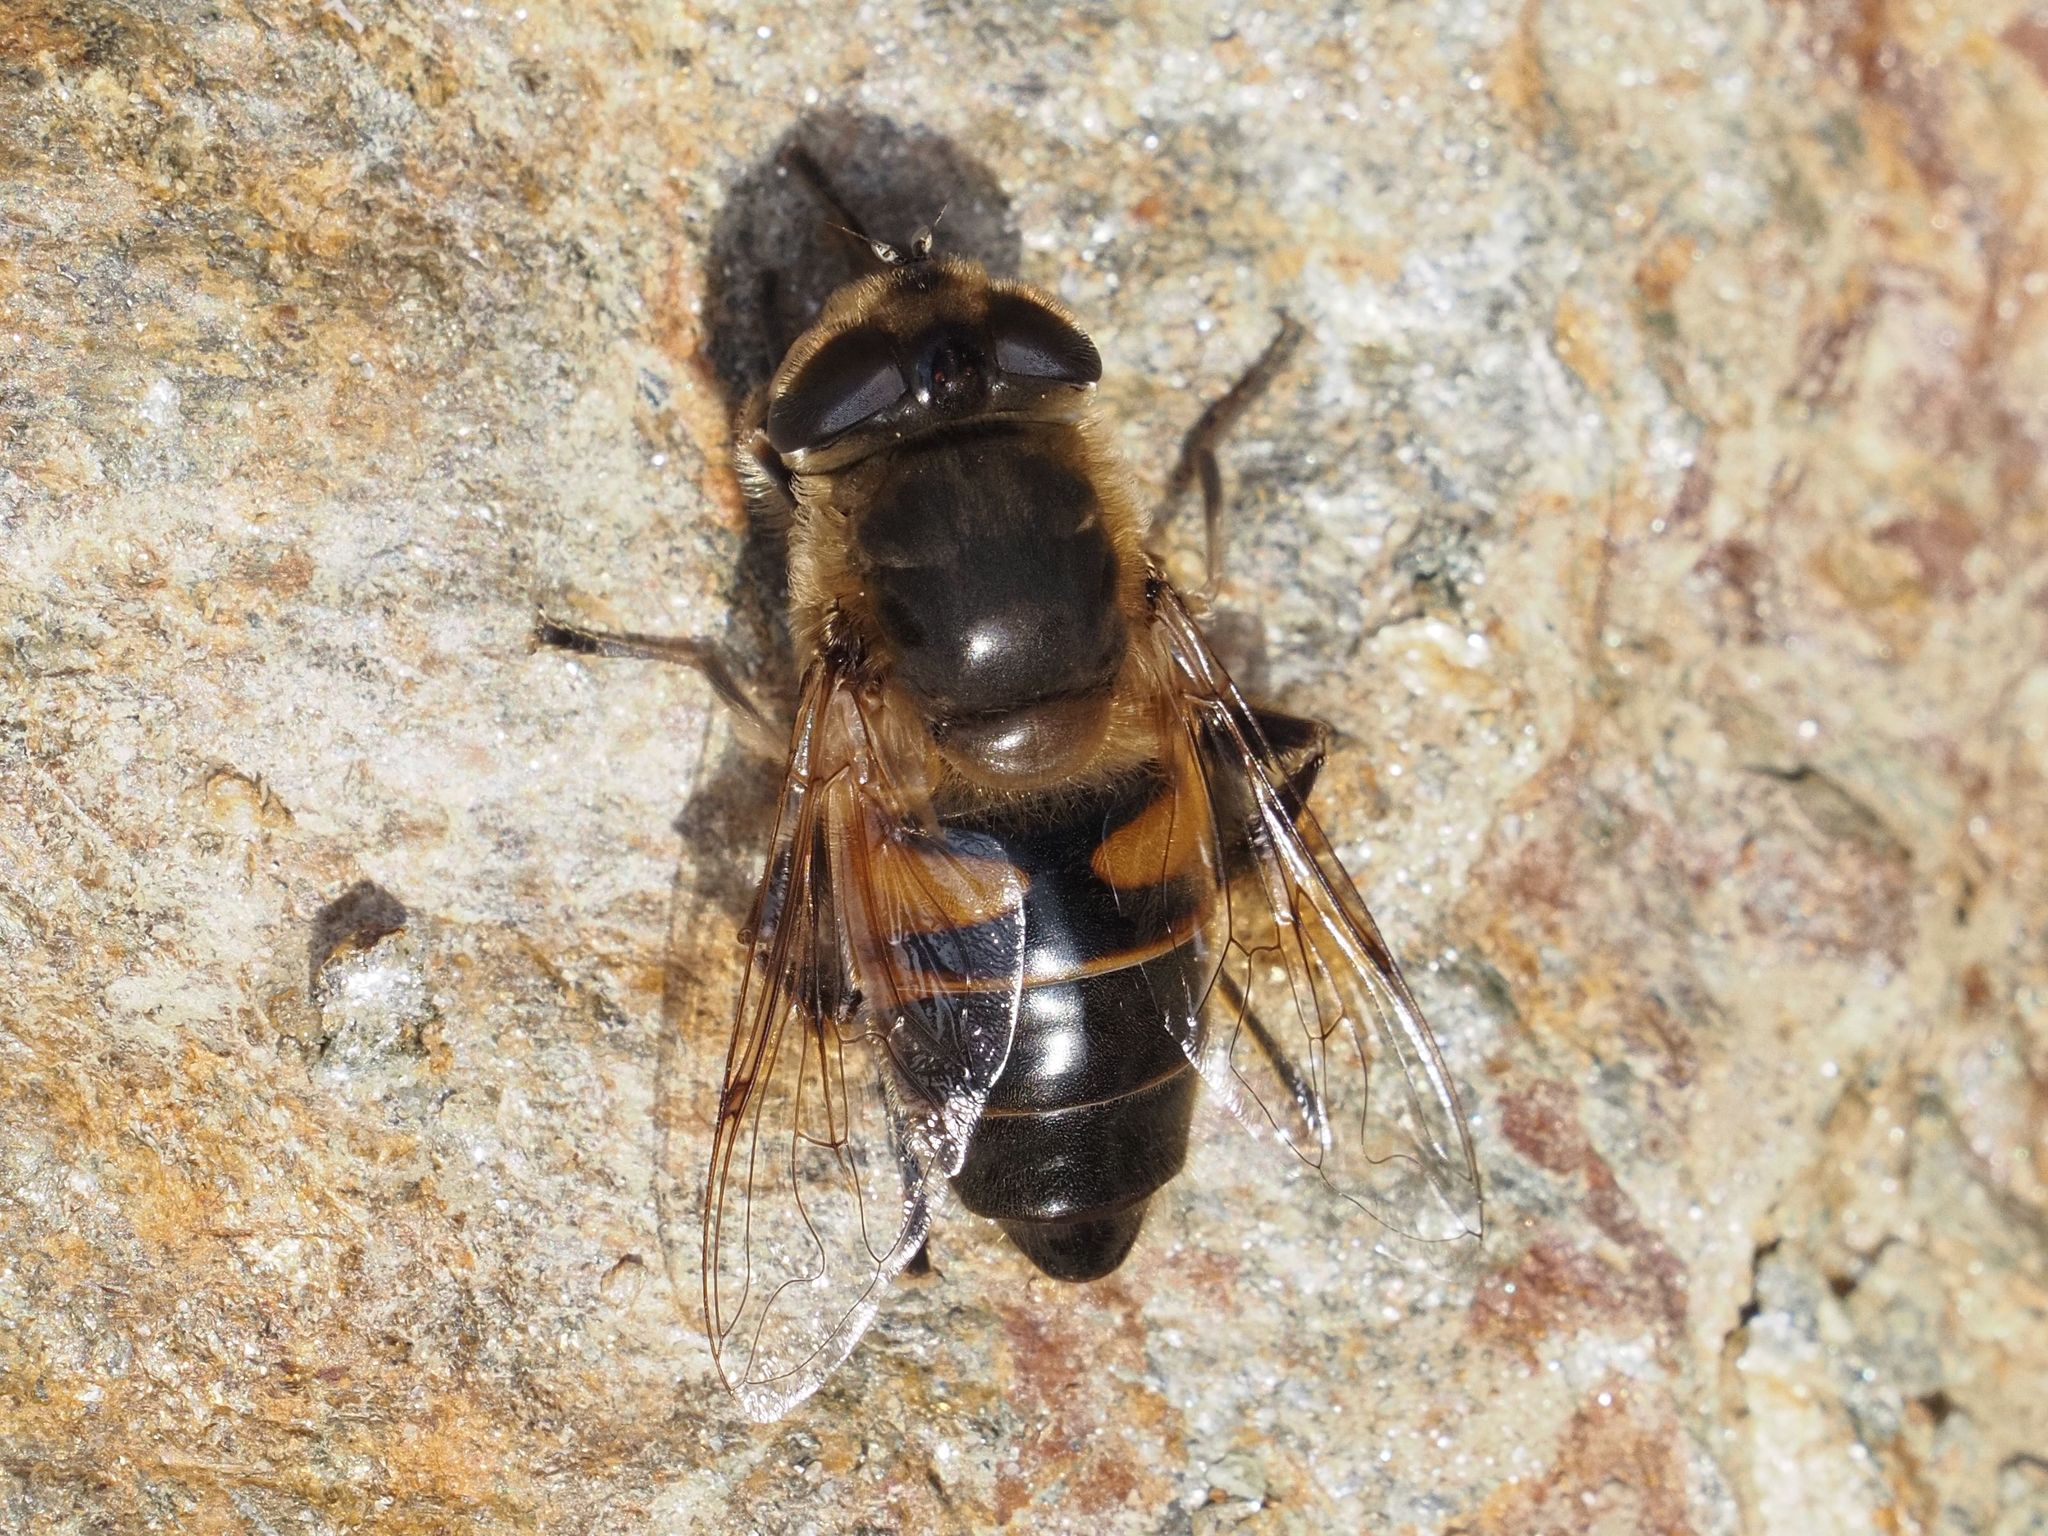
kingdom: Animalia
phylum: Arthropoda
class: Insecta
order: Diptera
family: Syrphidae
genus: Eristalis
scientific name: Eristalis tenax
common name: Drone fly
